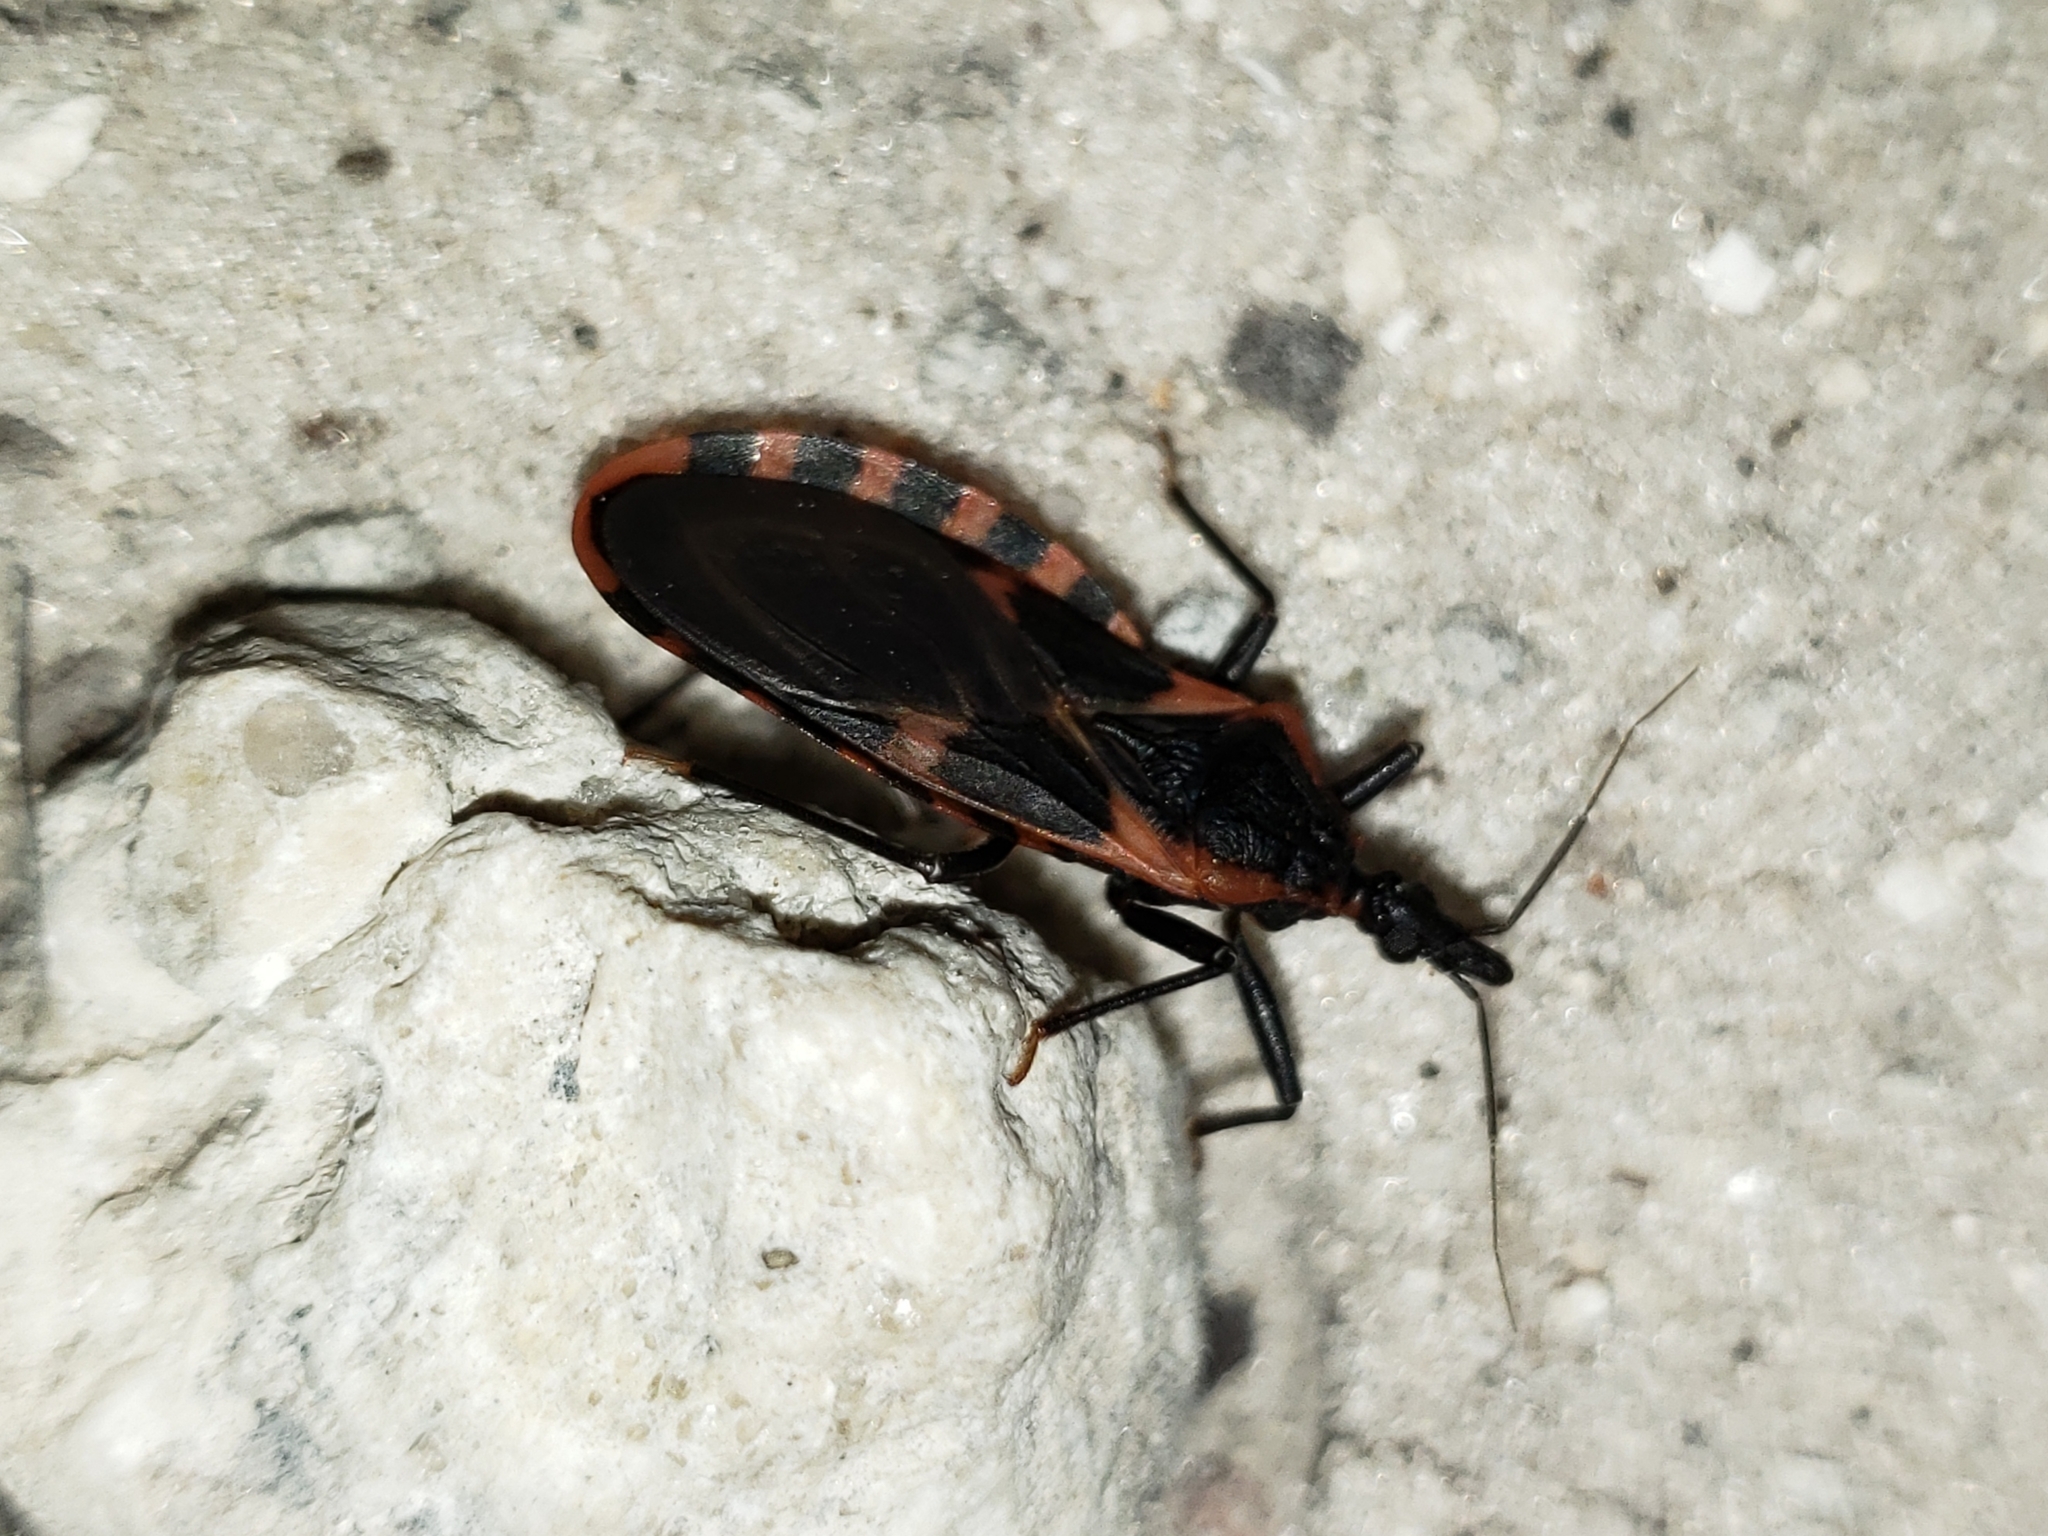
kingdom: Animalia
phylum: Arthropoda
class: Insecta
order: Hemiptera
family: Reduviidae
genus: Triatoma
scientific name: Triatoma sanguisuga
